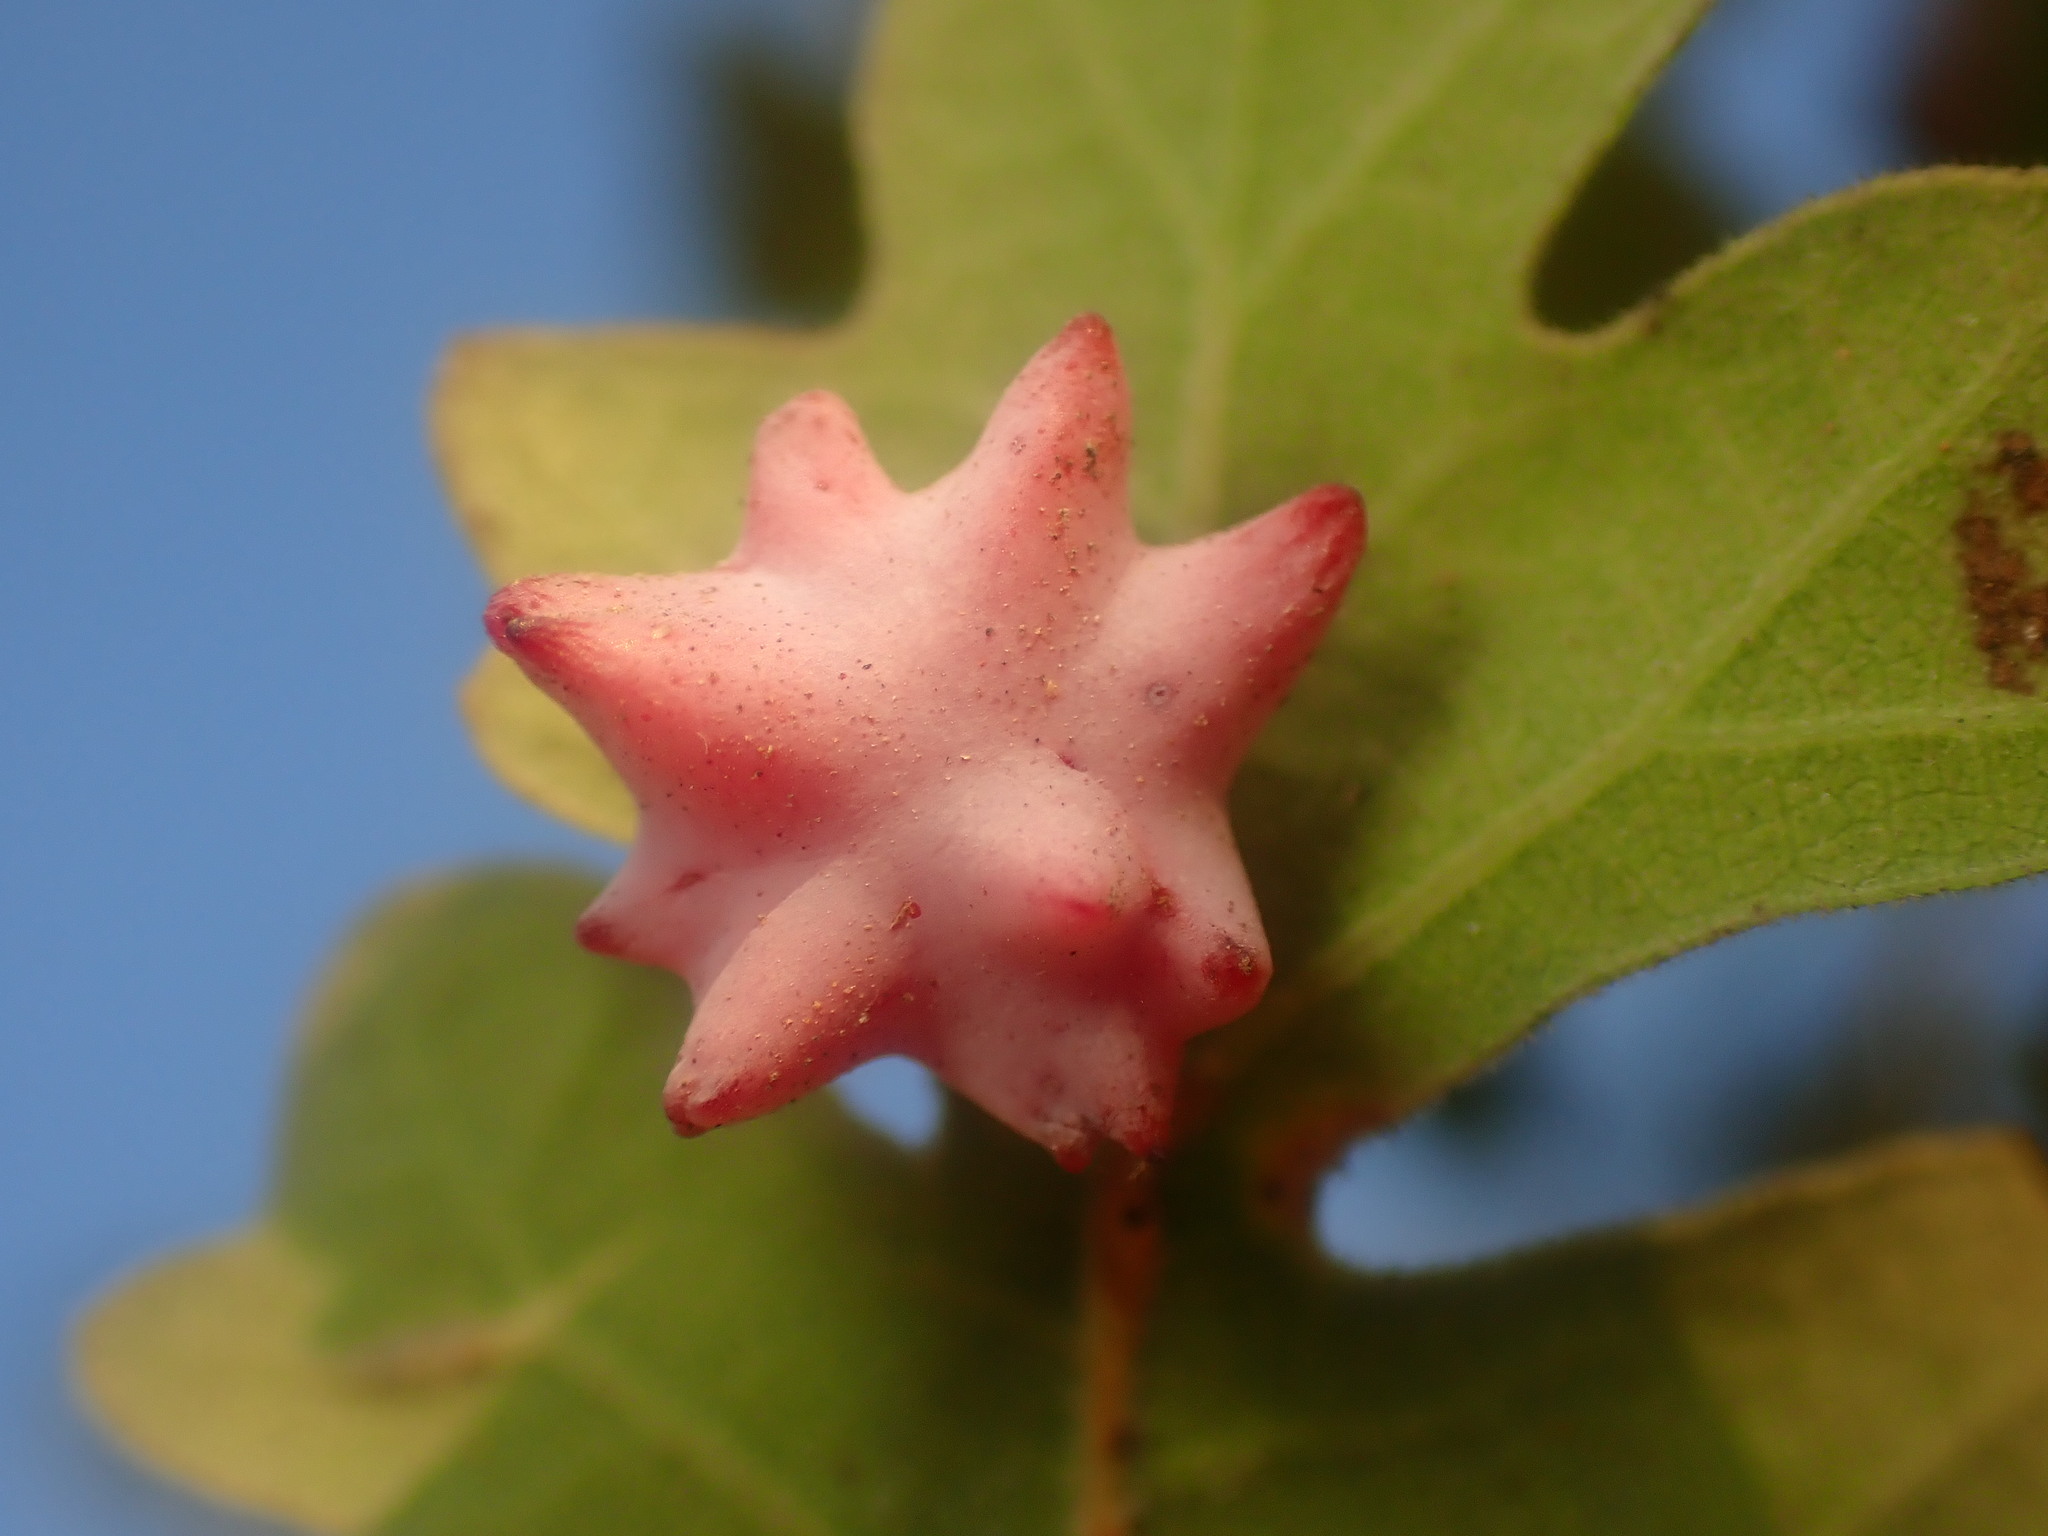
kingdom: Animalia
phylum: Arthropoda
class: Insecta
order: Hymenoptera
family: Cynipidae
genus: Cynips
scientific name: Cynips douglasi
